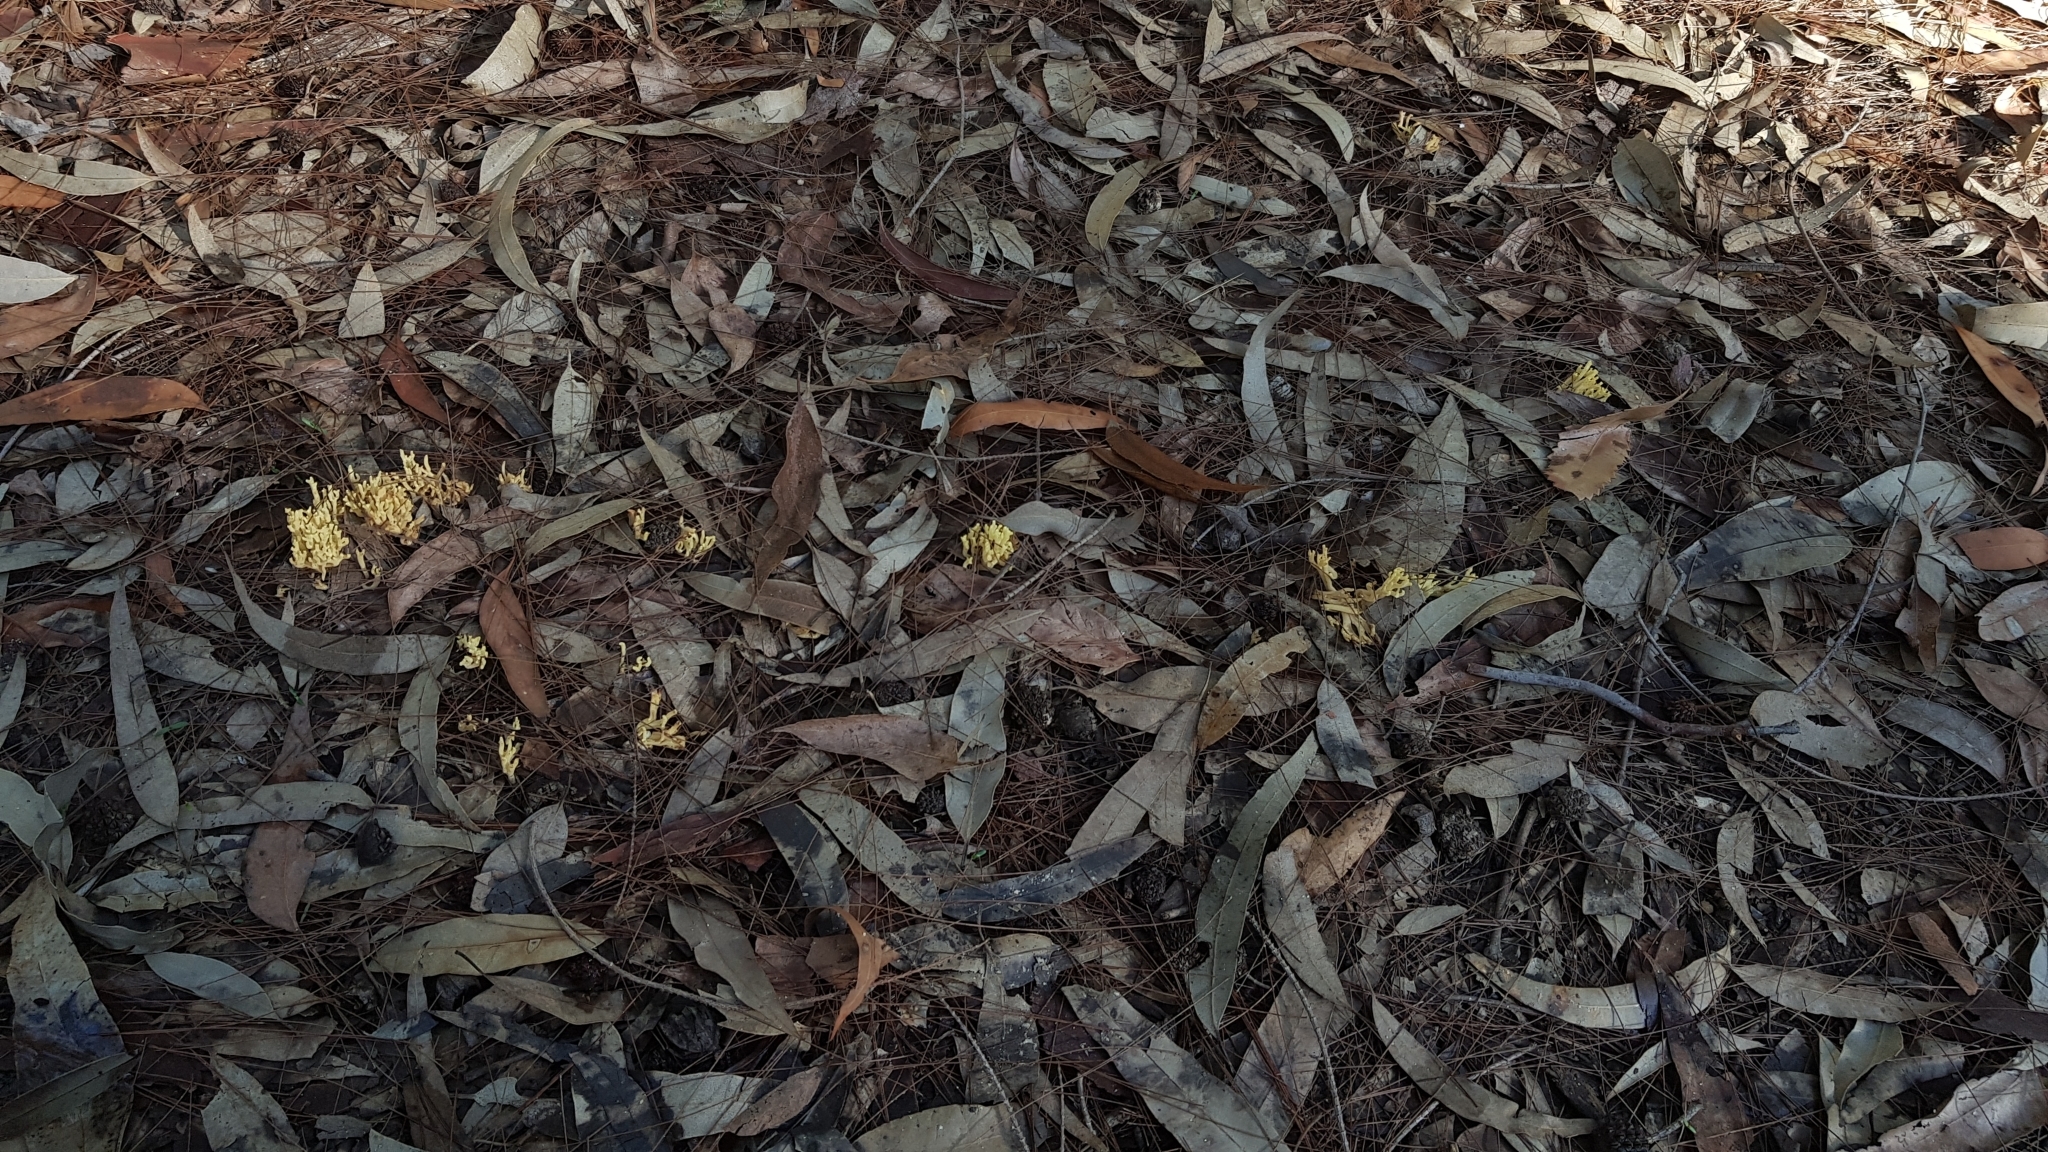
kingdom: Fungi
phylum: Basidiomycota
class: Agaricomycetes
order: Gomphales
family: Gomphaceae
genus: Ramaria
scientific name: Ramaria lorithamnus
